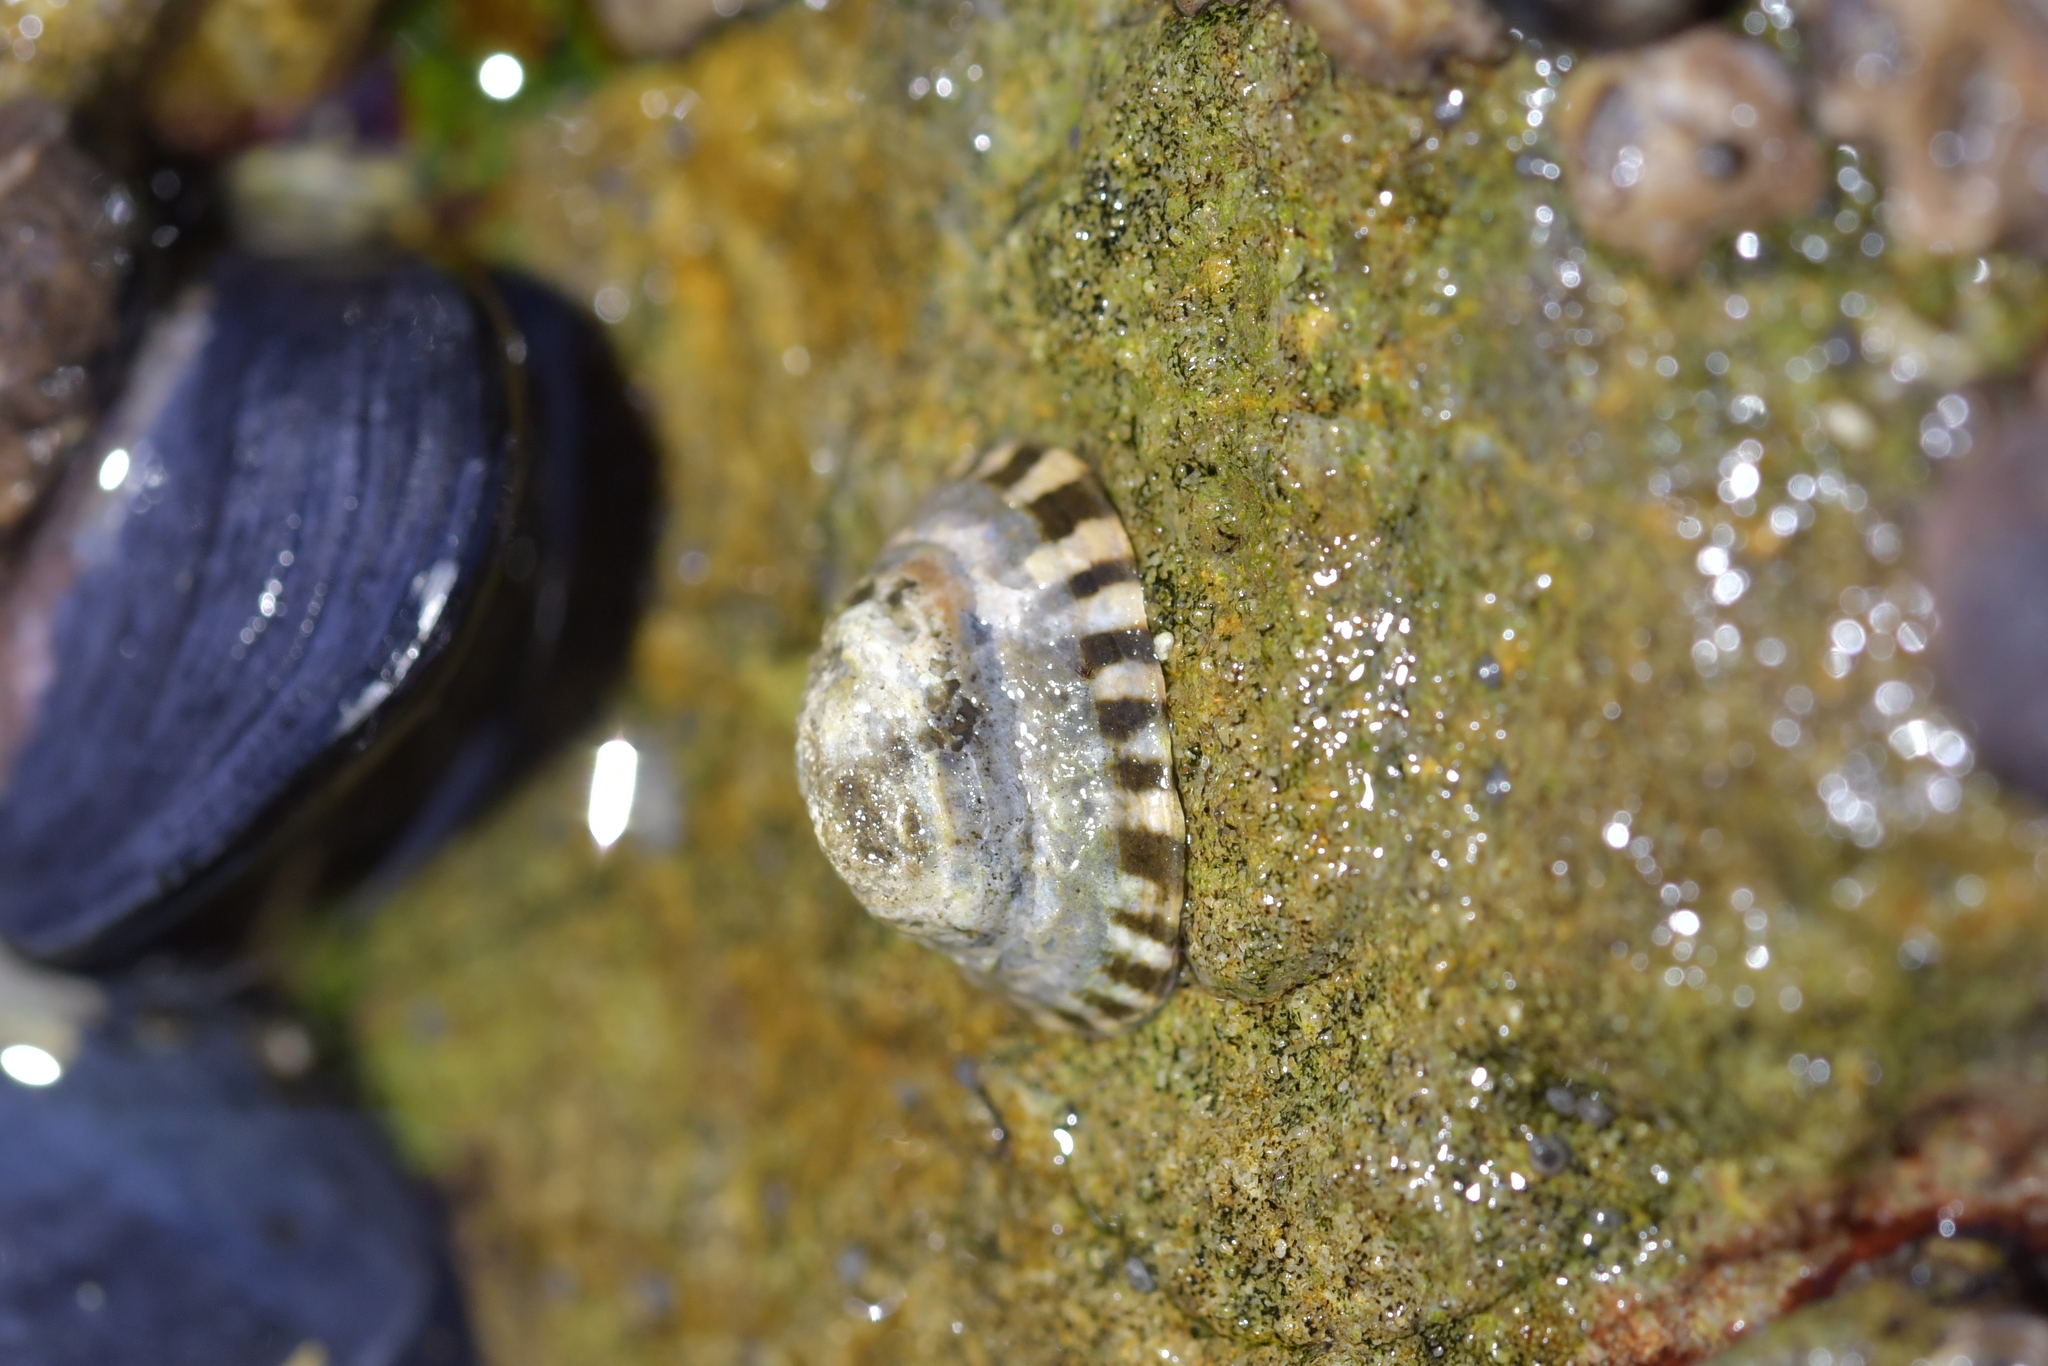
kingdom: Animalia
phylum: Mollusca
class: Gastropoda
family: Lottiidae
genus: Notoacmea
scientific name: Notoacmea parviconoidea
